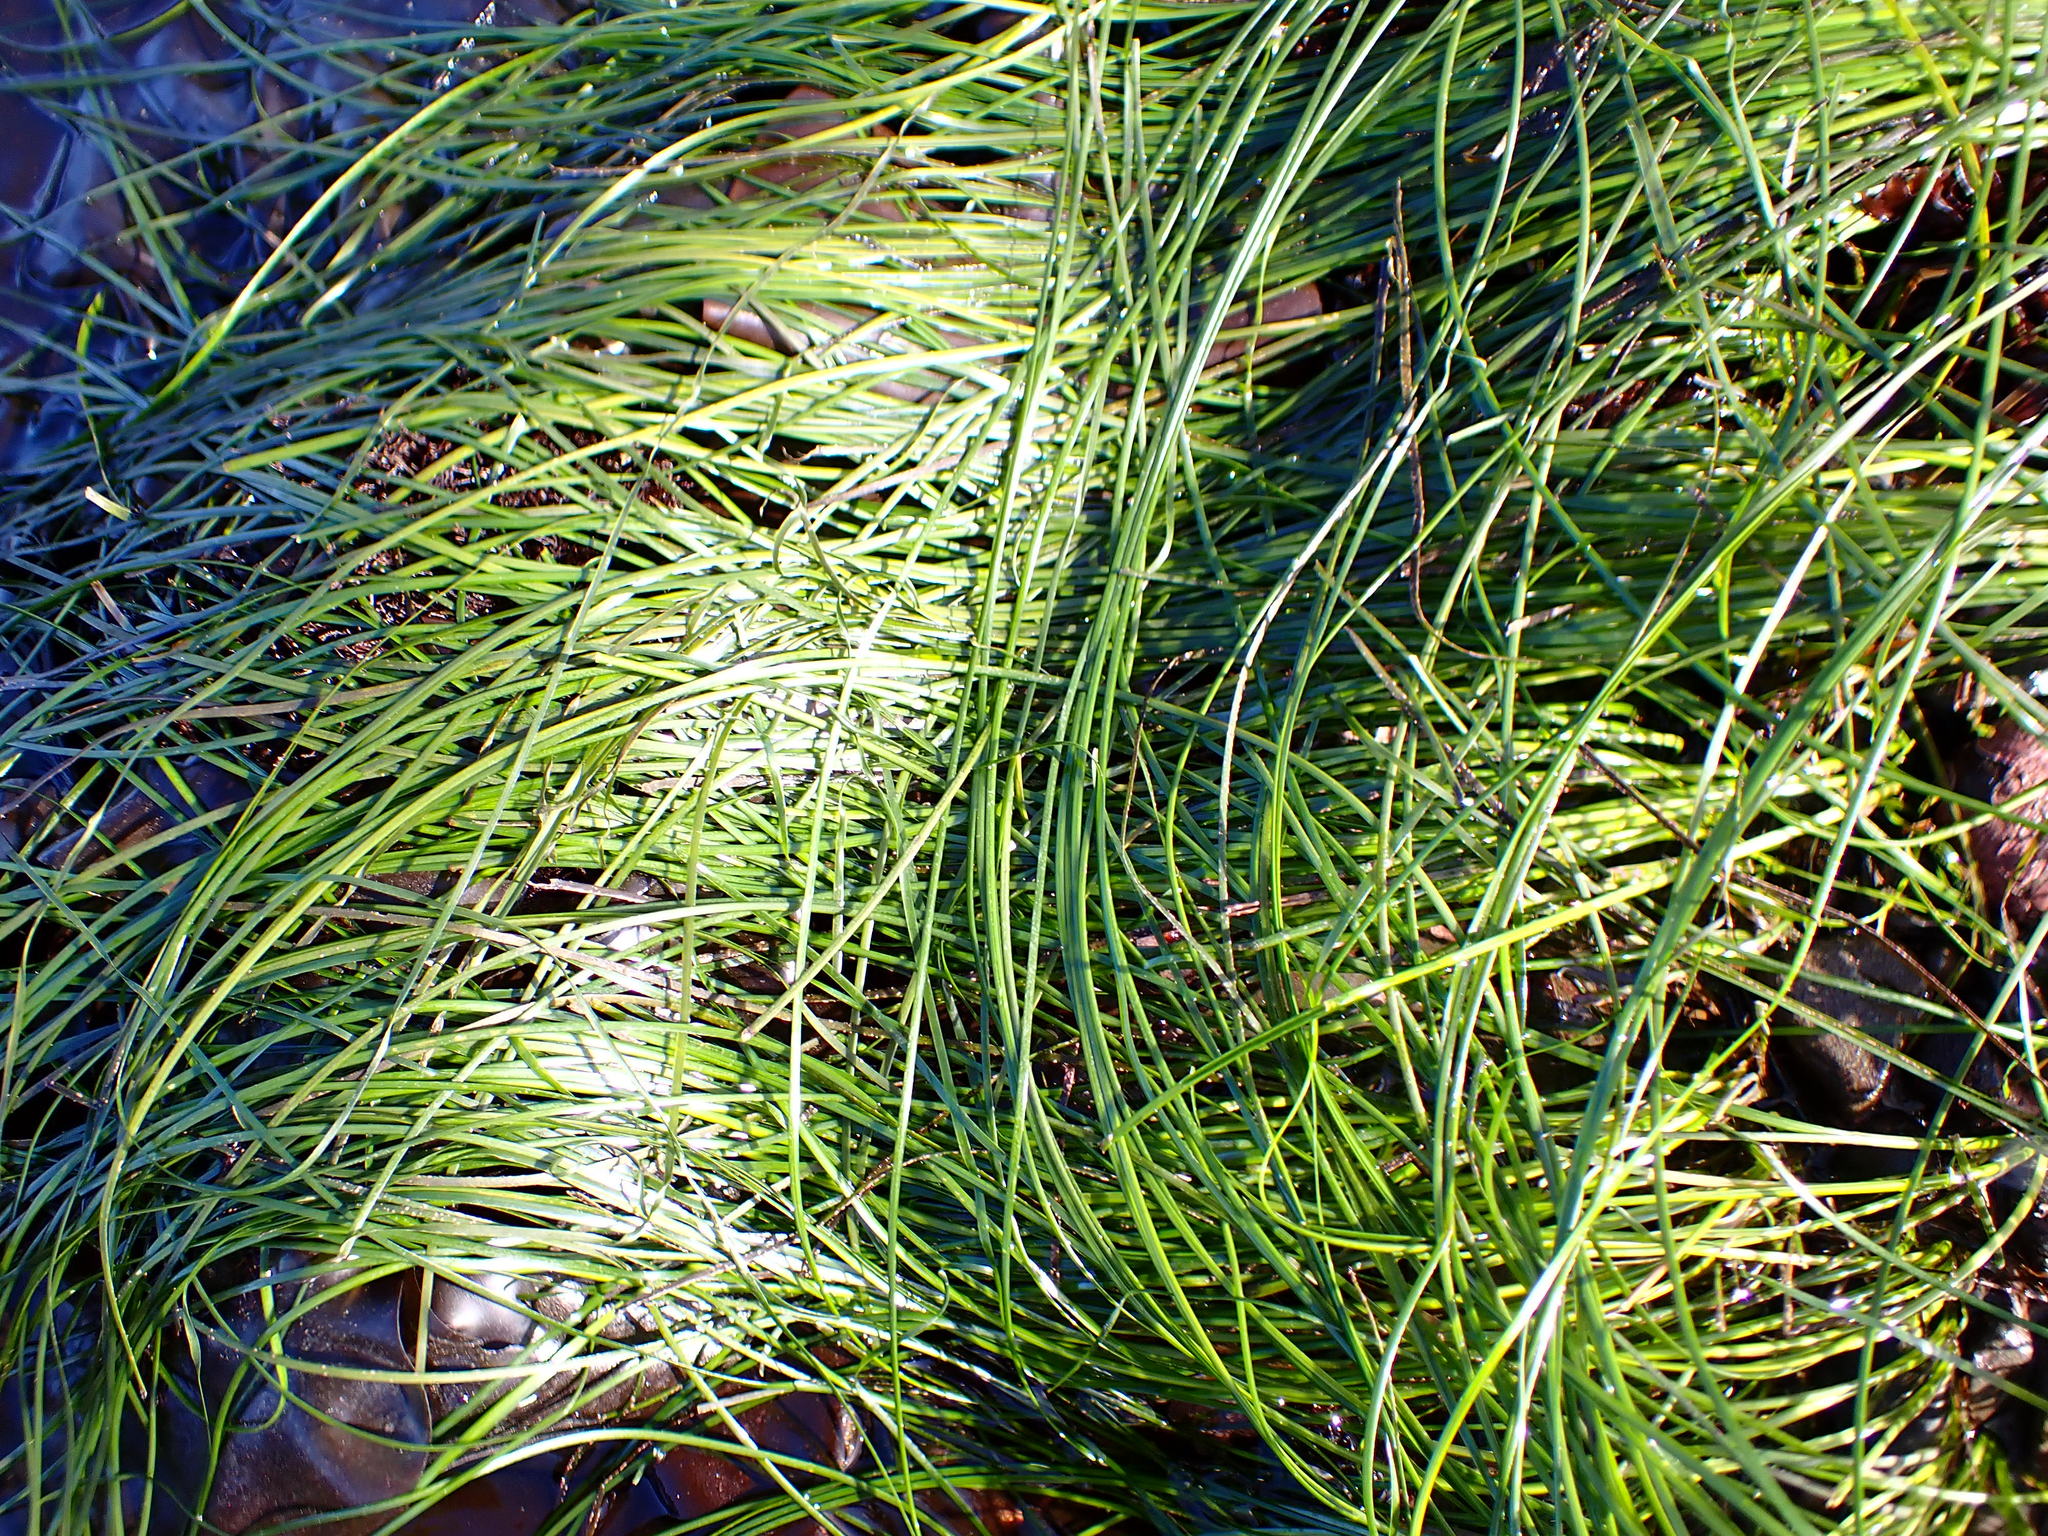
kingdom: Plantae
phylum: Tracheophyta
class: Liliopsida
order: Alismatales
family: Zosteraceae
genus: Phyllospadix
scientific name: Phyllospadix torreyi
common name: Surfgrass
